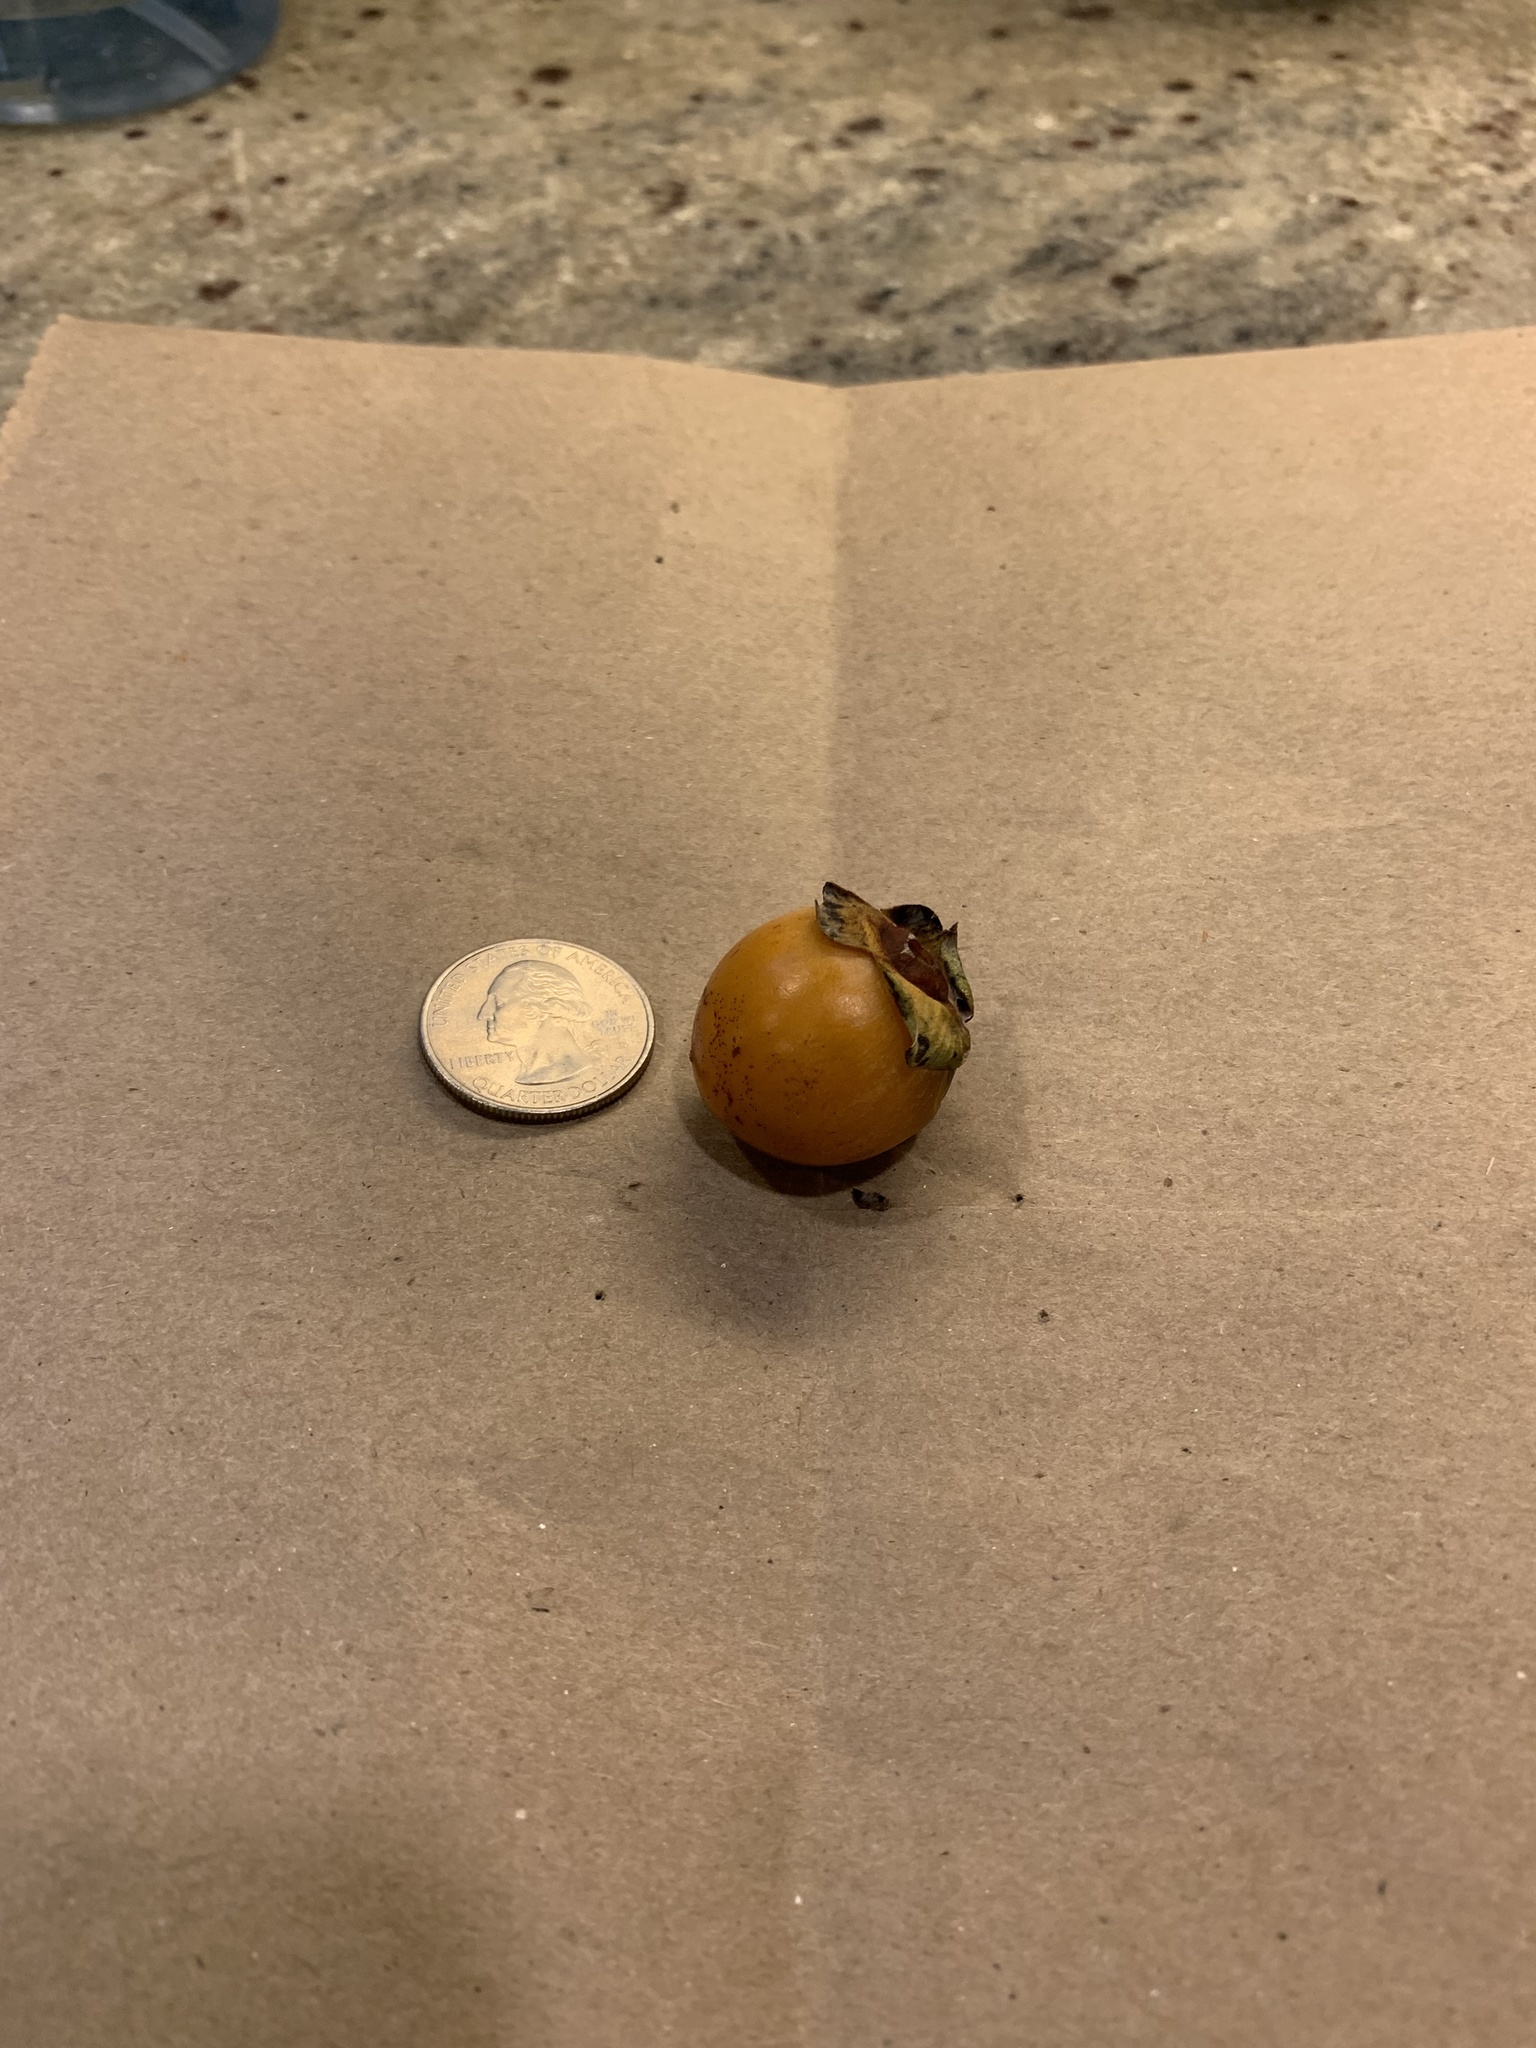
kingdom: Plantae
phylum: Tracheophyta
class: Magnoliopsida
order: Ericales
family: Ebenaceae
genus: Diospyros
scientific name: Diospyros virginiana
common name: Persimmon
